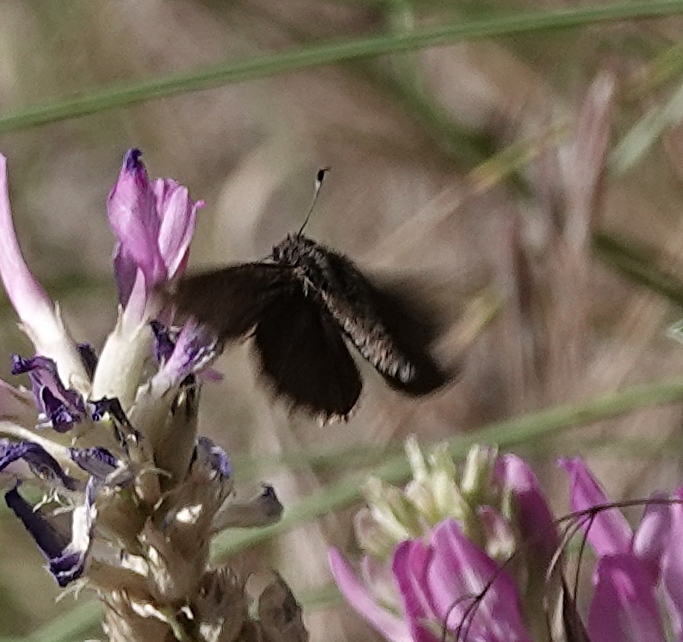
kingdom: Animalia
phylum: Arthropoda
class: Insecta
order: Lepidoptera
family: Hesperiidae
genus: Mastor
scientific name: Mastor vialis
